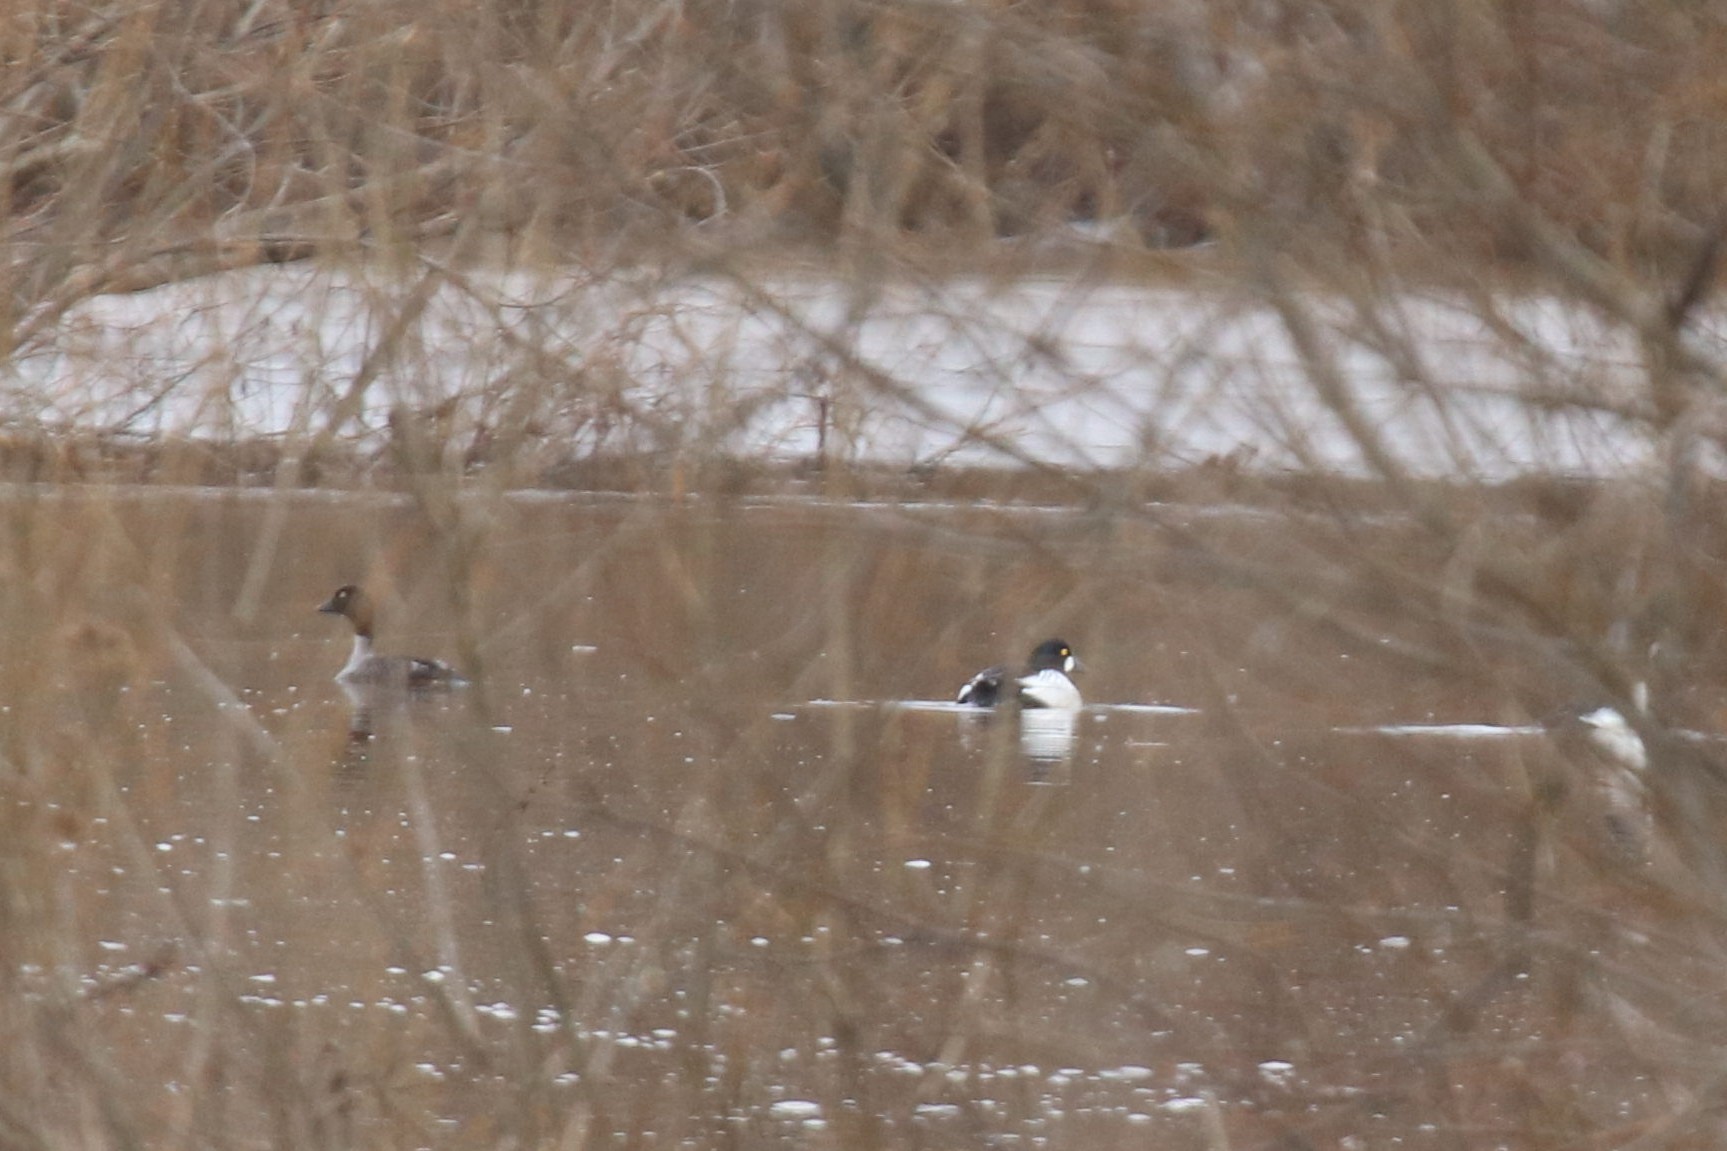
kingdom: Animalia
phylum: Chordata
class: Aves
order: Anseriformes
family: Anatidae
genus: Bucephala
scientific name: Bucephala clangula
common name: Common goldeneye
